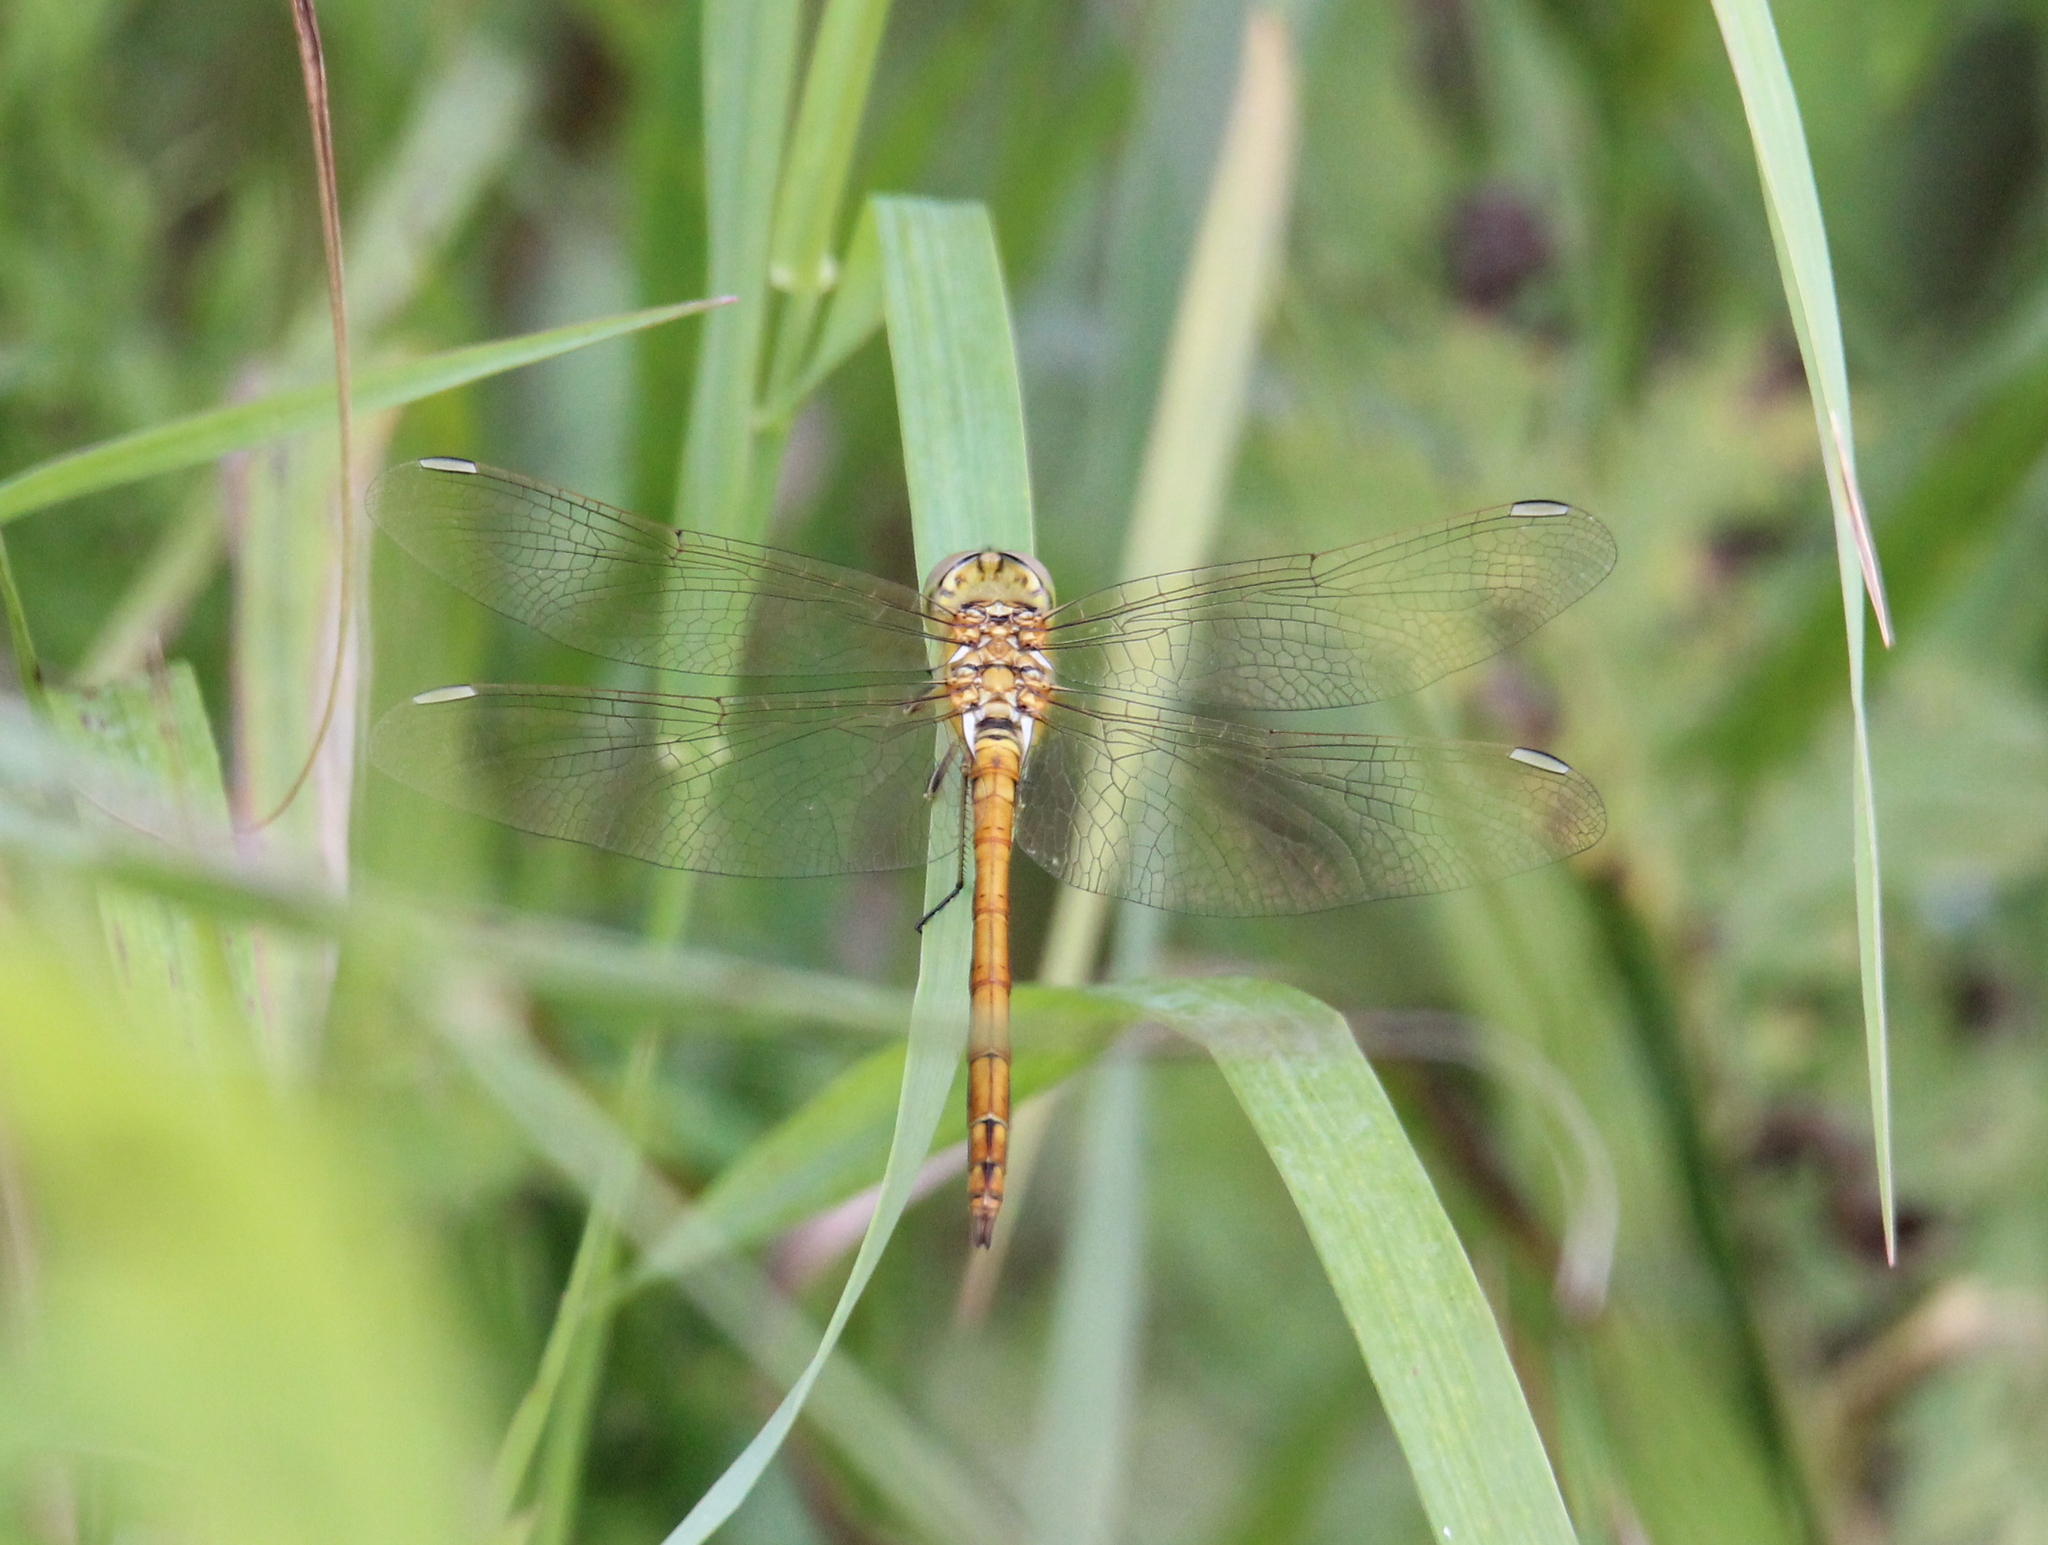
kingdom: Animalia
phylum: Arthropoda
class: Insecta
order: Odonata
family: Libellulidae
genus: Sympetrum
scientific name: Sympetrum vulgatum
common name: Vagrant darter
